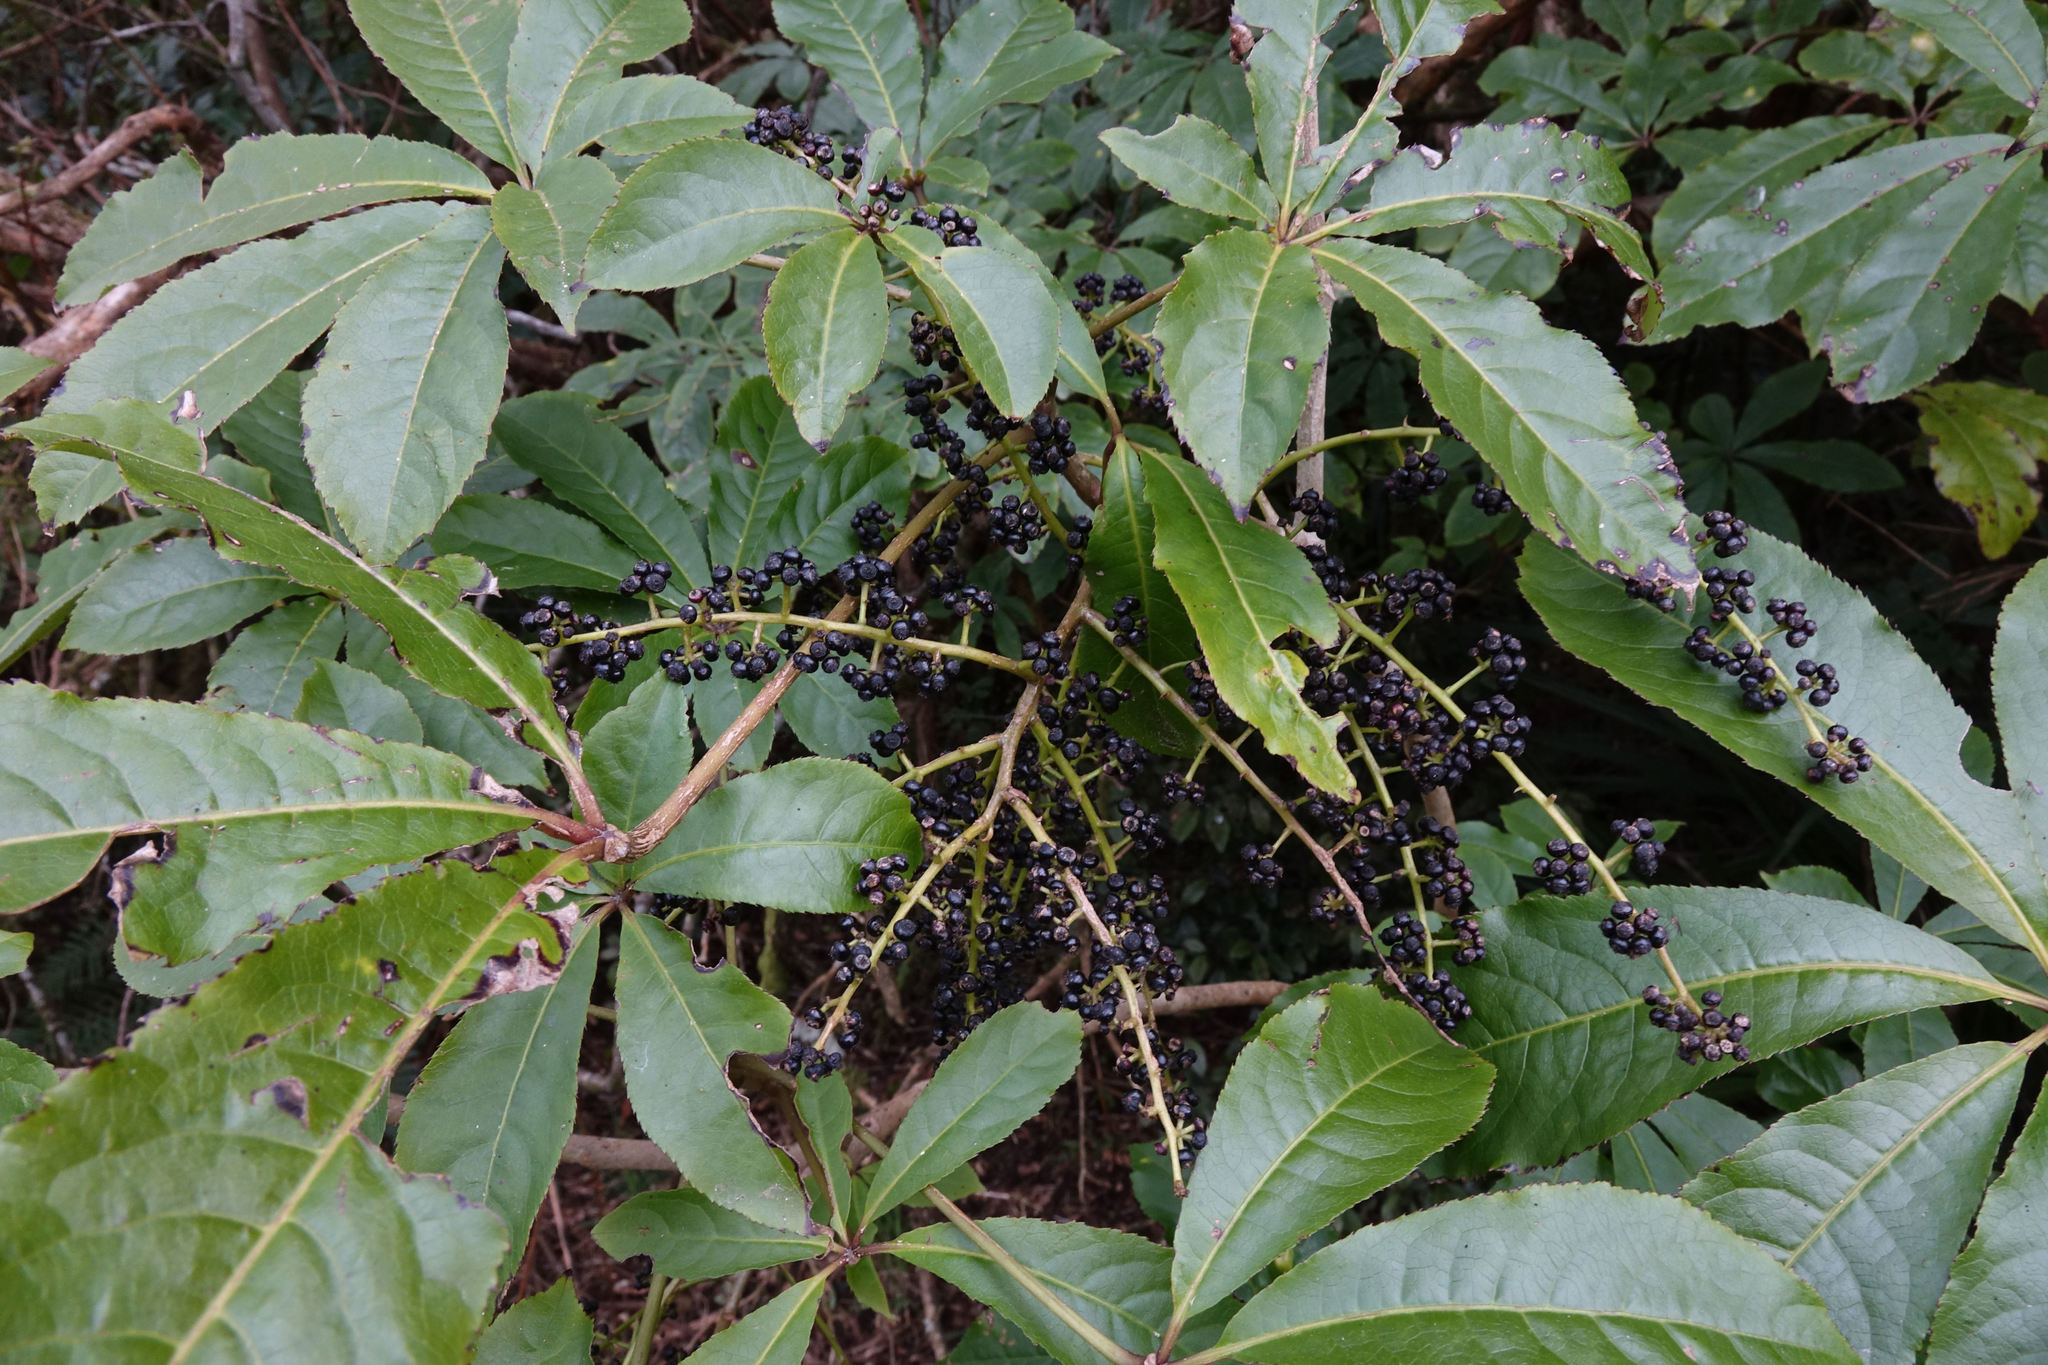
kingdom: Plantae
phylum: Tracheophyta
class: Magnoliopsida
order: Apiales
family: Araliaceae
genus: Schefflera
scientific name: Schefflera digitata
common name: Pate
